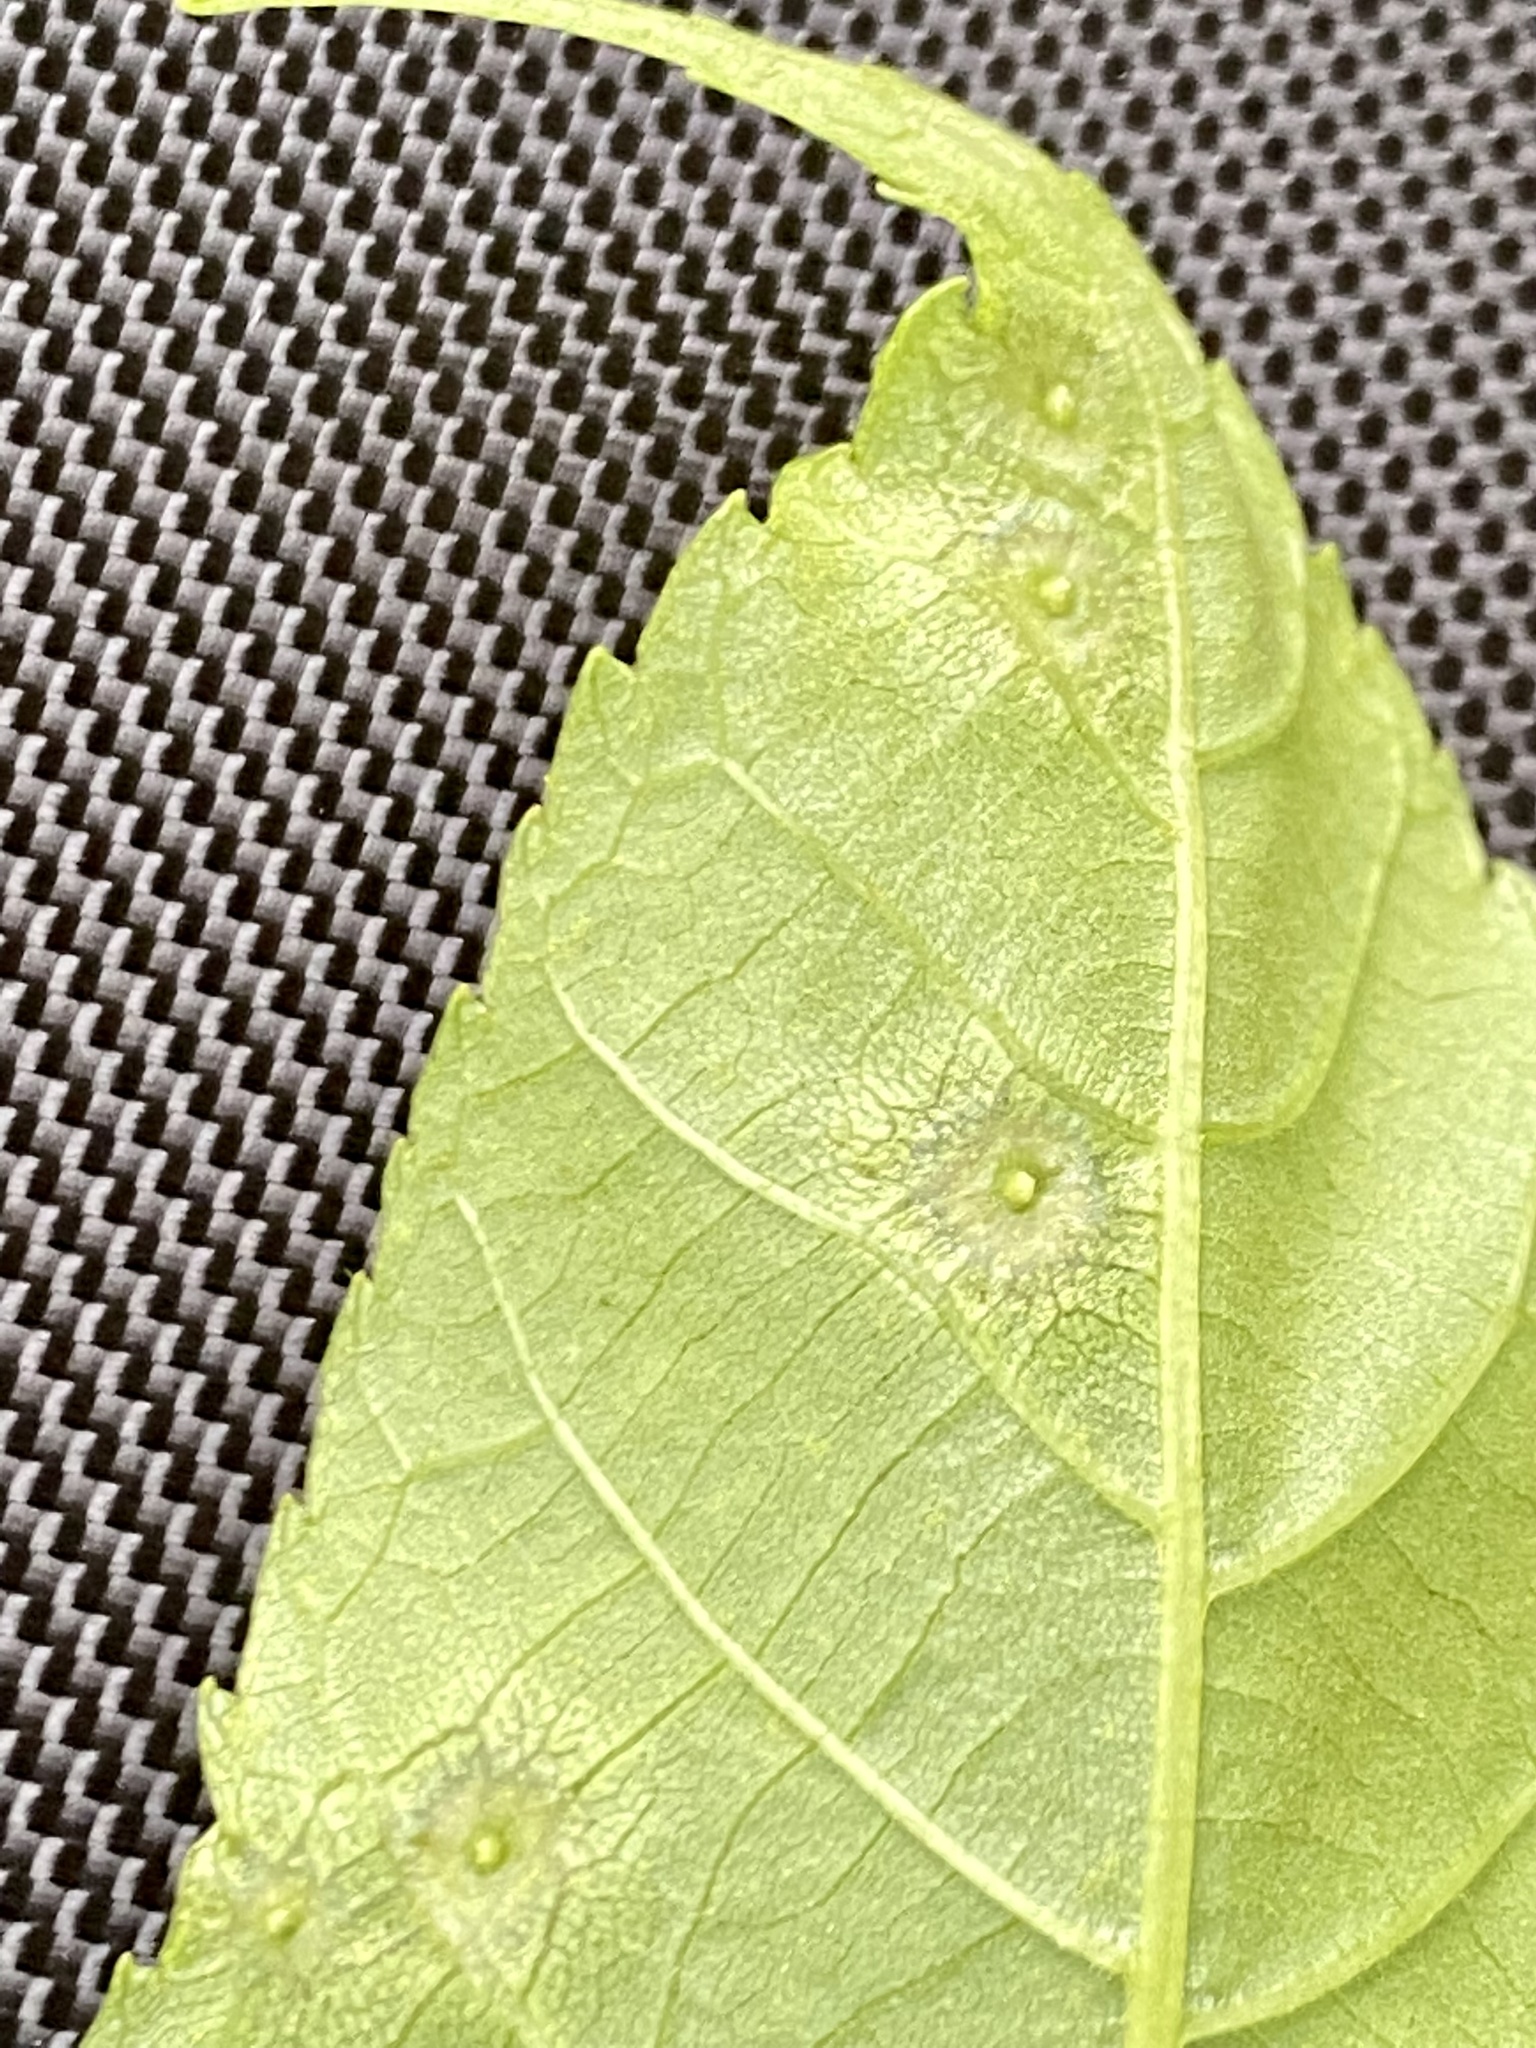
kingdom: Animalia
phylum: Arthropoda
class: Insecta
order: Hemiptera
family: Phylloxeridae
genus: Phylloxera
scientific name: Phylloxera foveola
